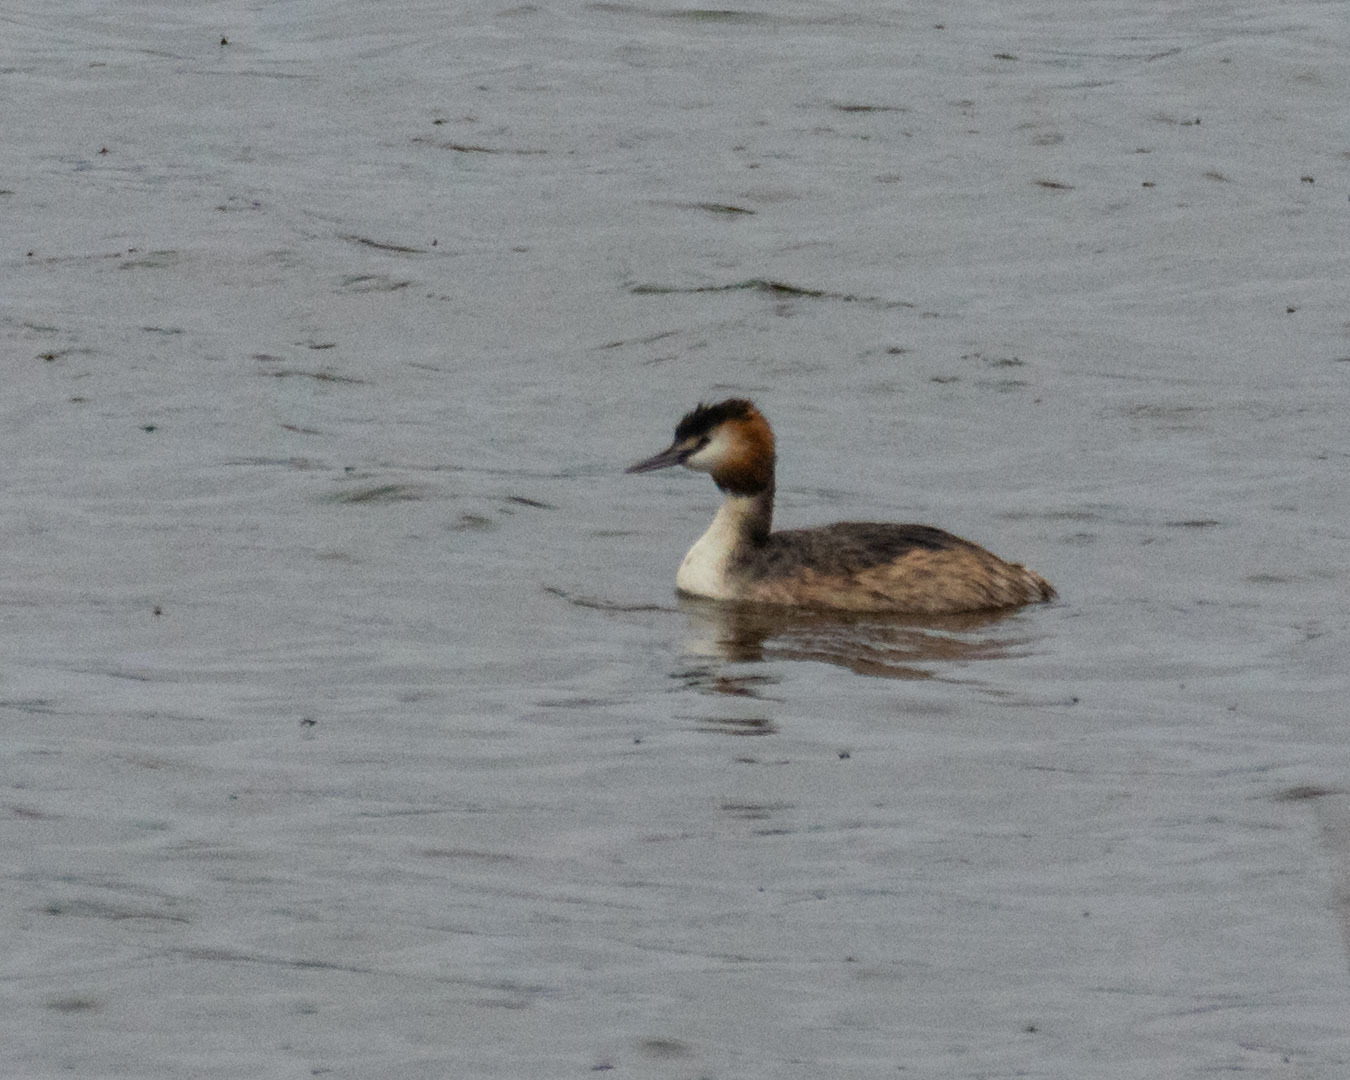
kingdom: Animalia
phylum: Chordata
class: Aves
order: Podicipediformes
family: Podicipedidae
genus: Podiceps
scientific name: Podiceps cristatus
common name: Great crested grebe
